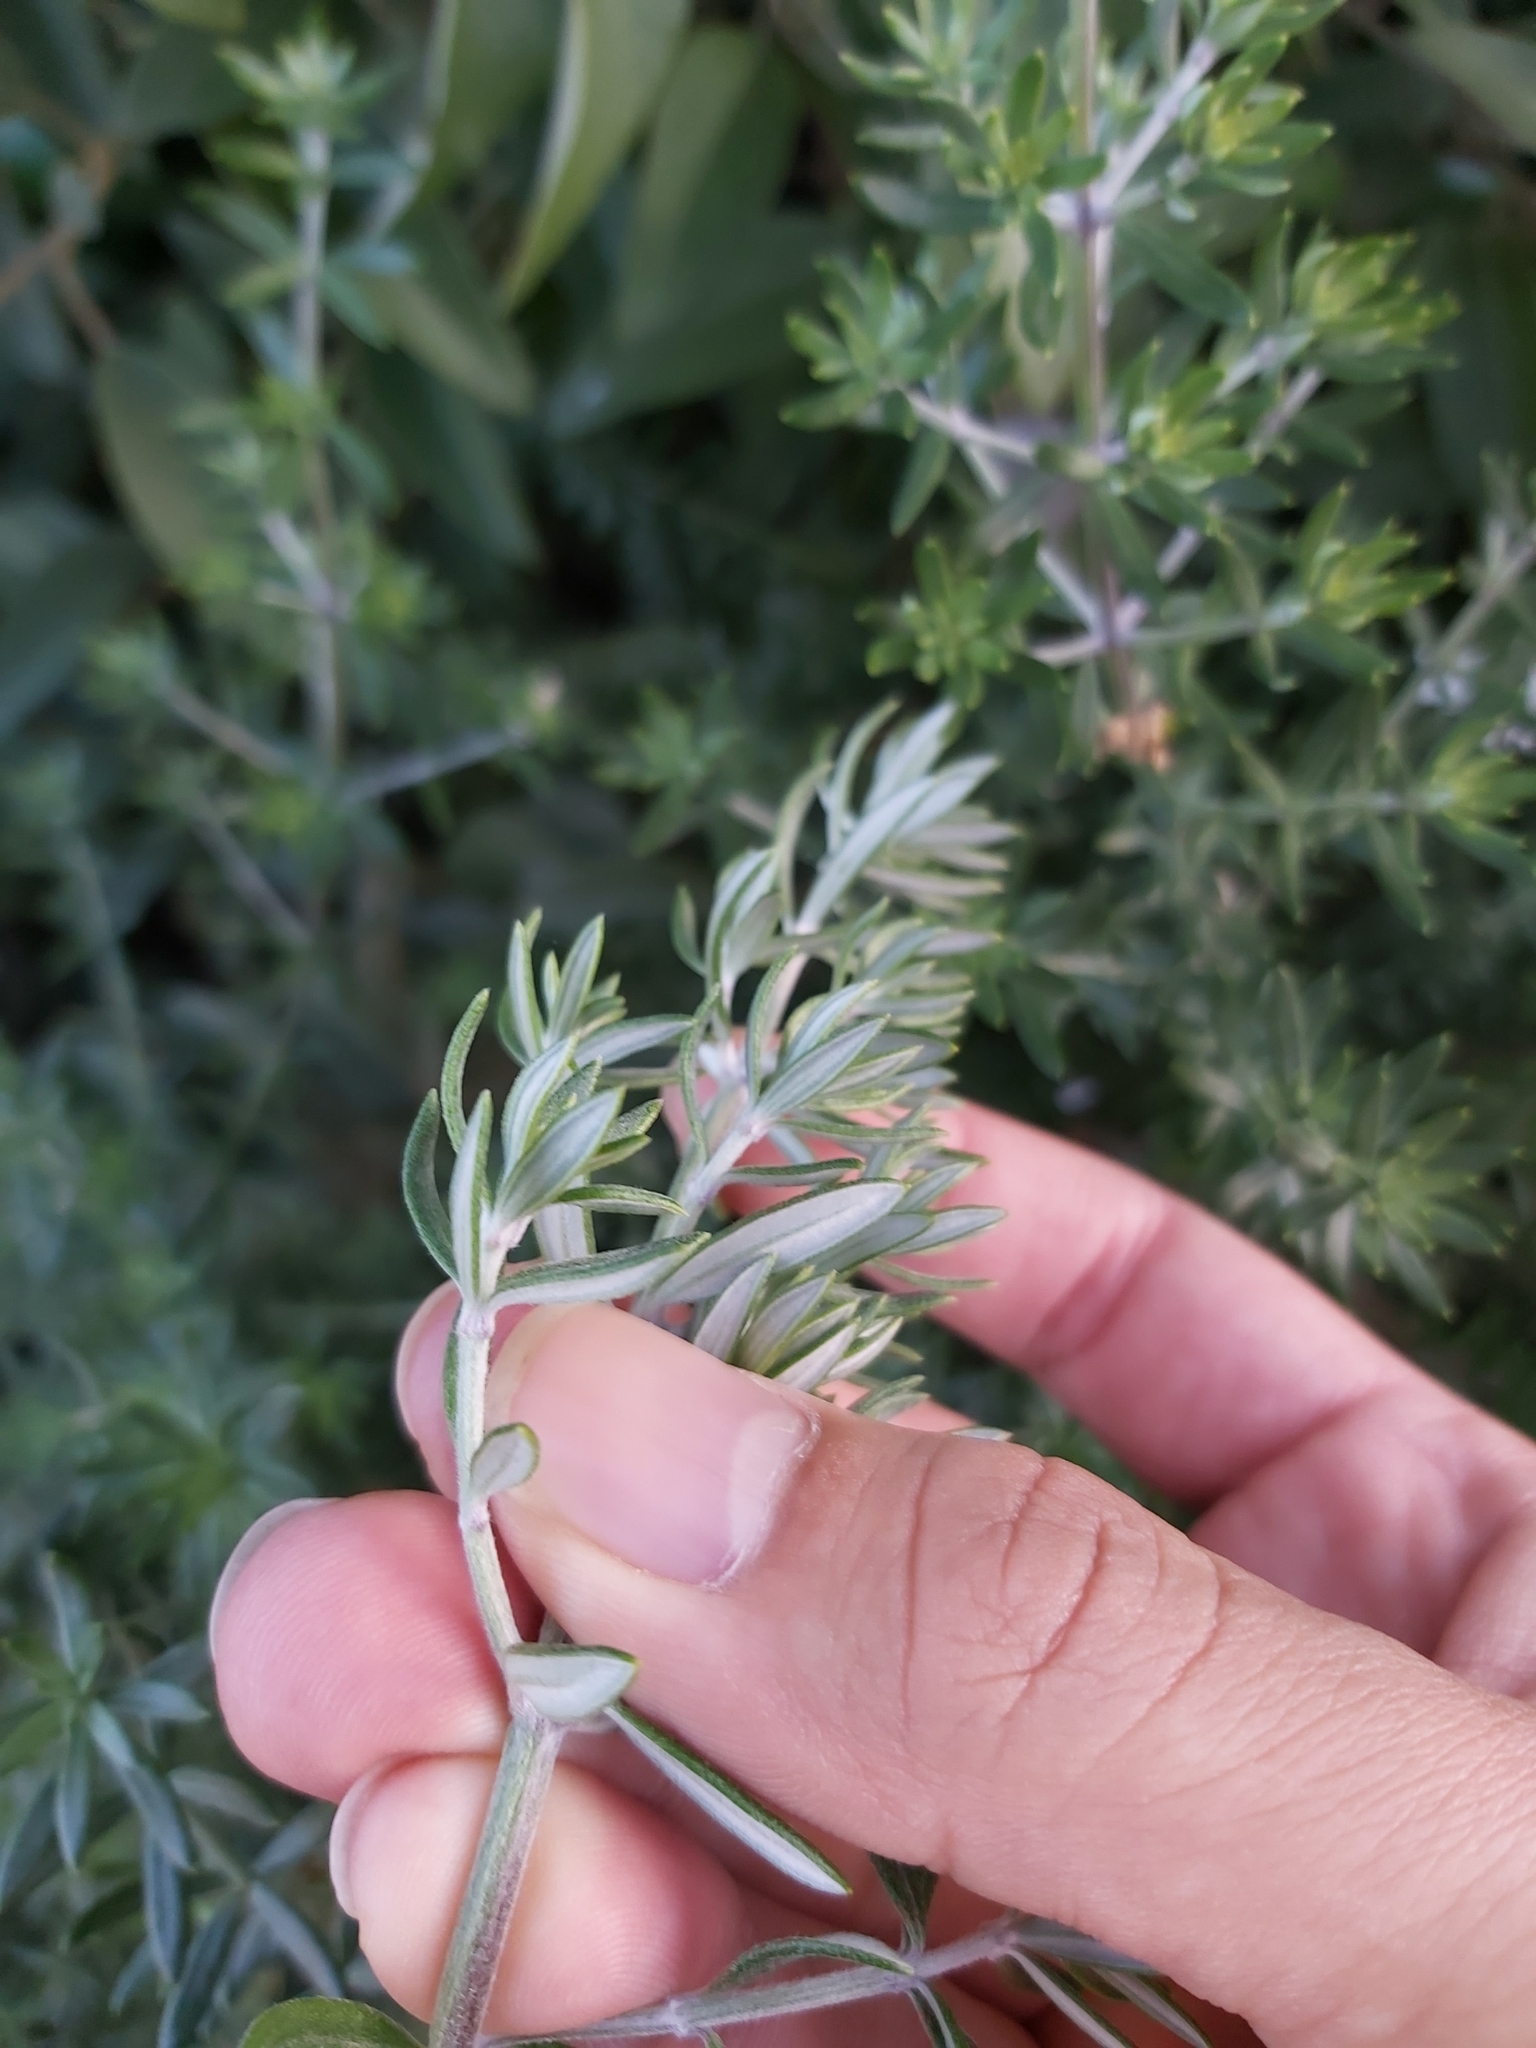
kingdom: Plantae
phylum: Tracheophyta
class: Magnoliopsida
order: Lamiales
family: Lamiaceae
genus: Westringia
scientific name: Westringia fruticosa
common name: Coastal-rosemary
